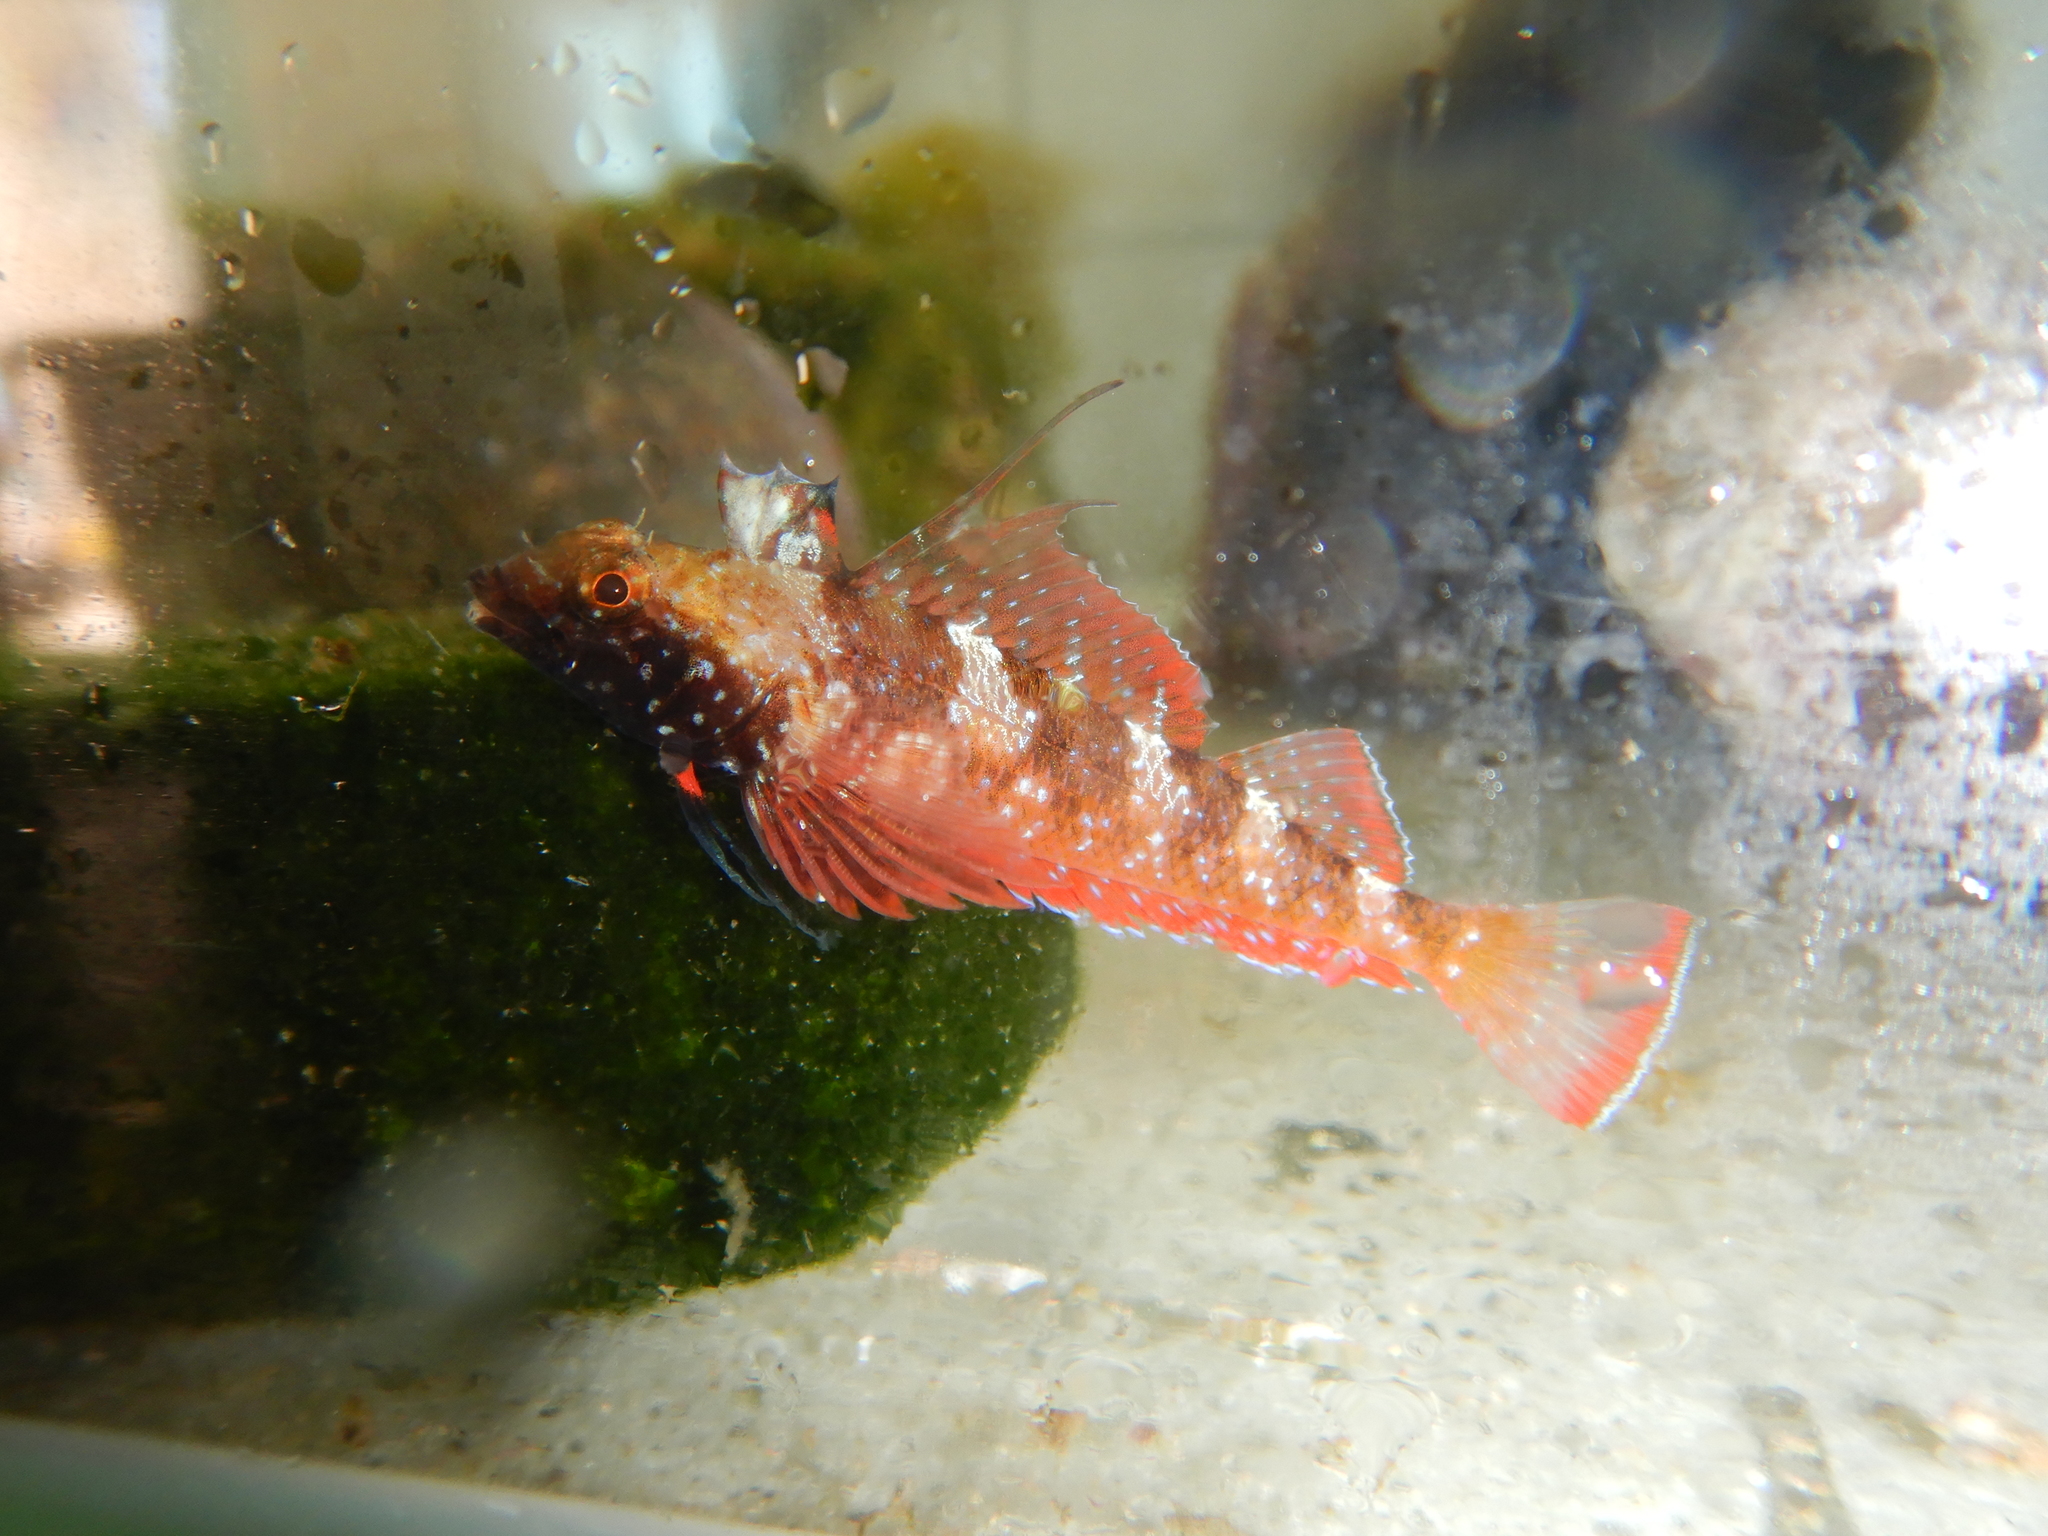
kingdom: Animalia
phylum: Chordata
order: Perciformes
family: Tripterygiidae
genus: Tripterygion
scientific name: Tripterygion tripteronotum
